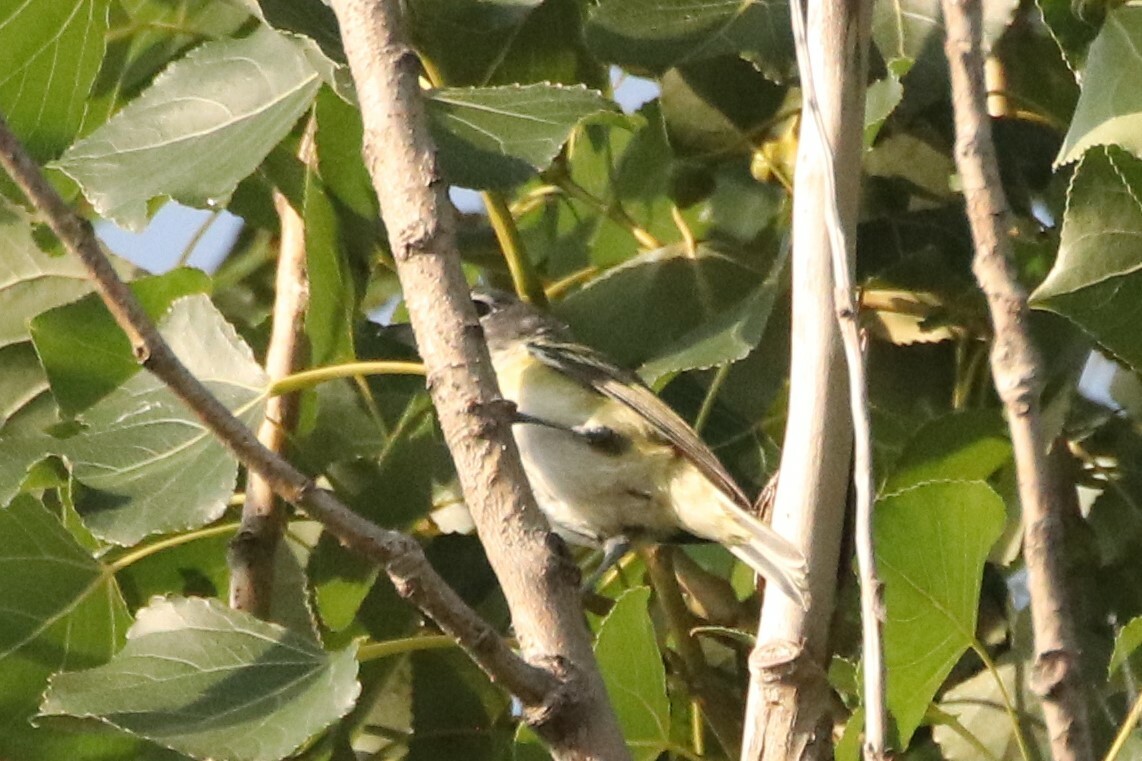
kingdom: Animalia
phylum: Chordata
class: Aves
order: Passeriformes
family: Vireonidae
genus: Vireo
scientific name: Vireo solitarius
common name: Blue-headed vireo
